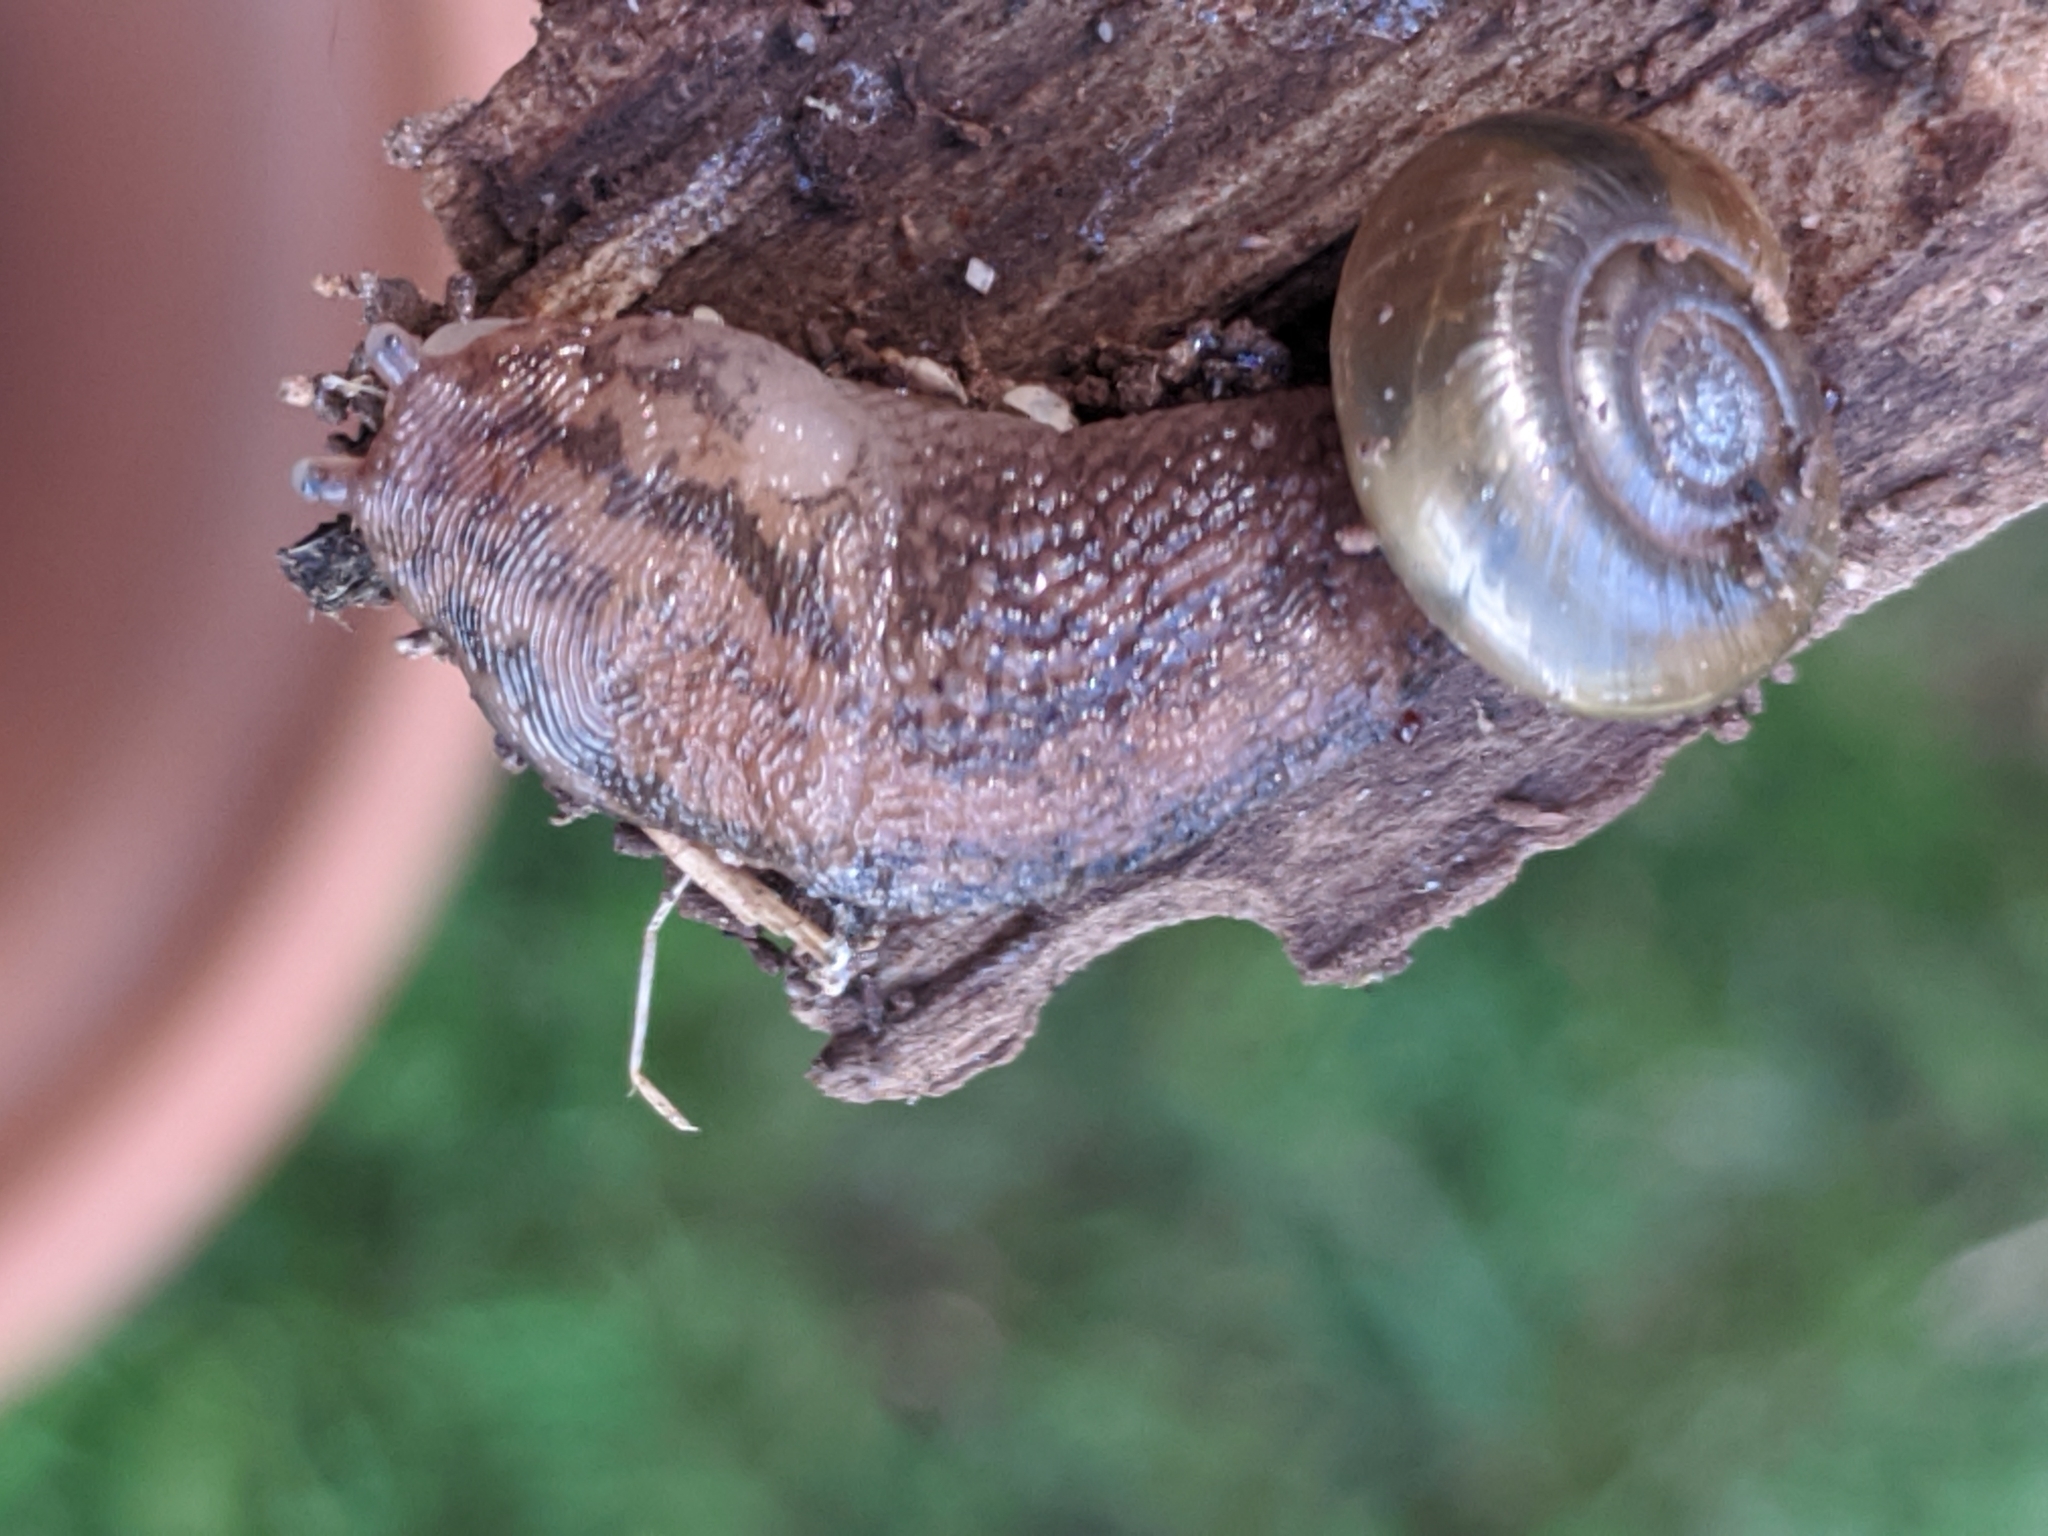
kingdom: Animalia
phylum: Mollusca
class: Gastropoda
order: Stylommatophora
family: Limacidae
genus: Ambigolimax
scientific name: Ambigolimax
